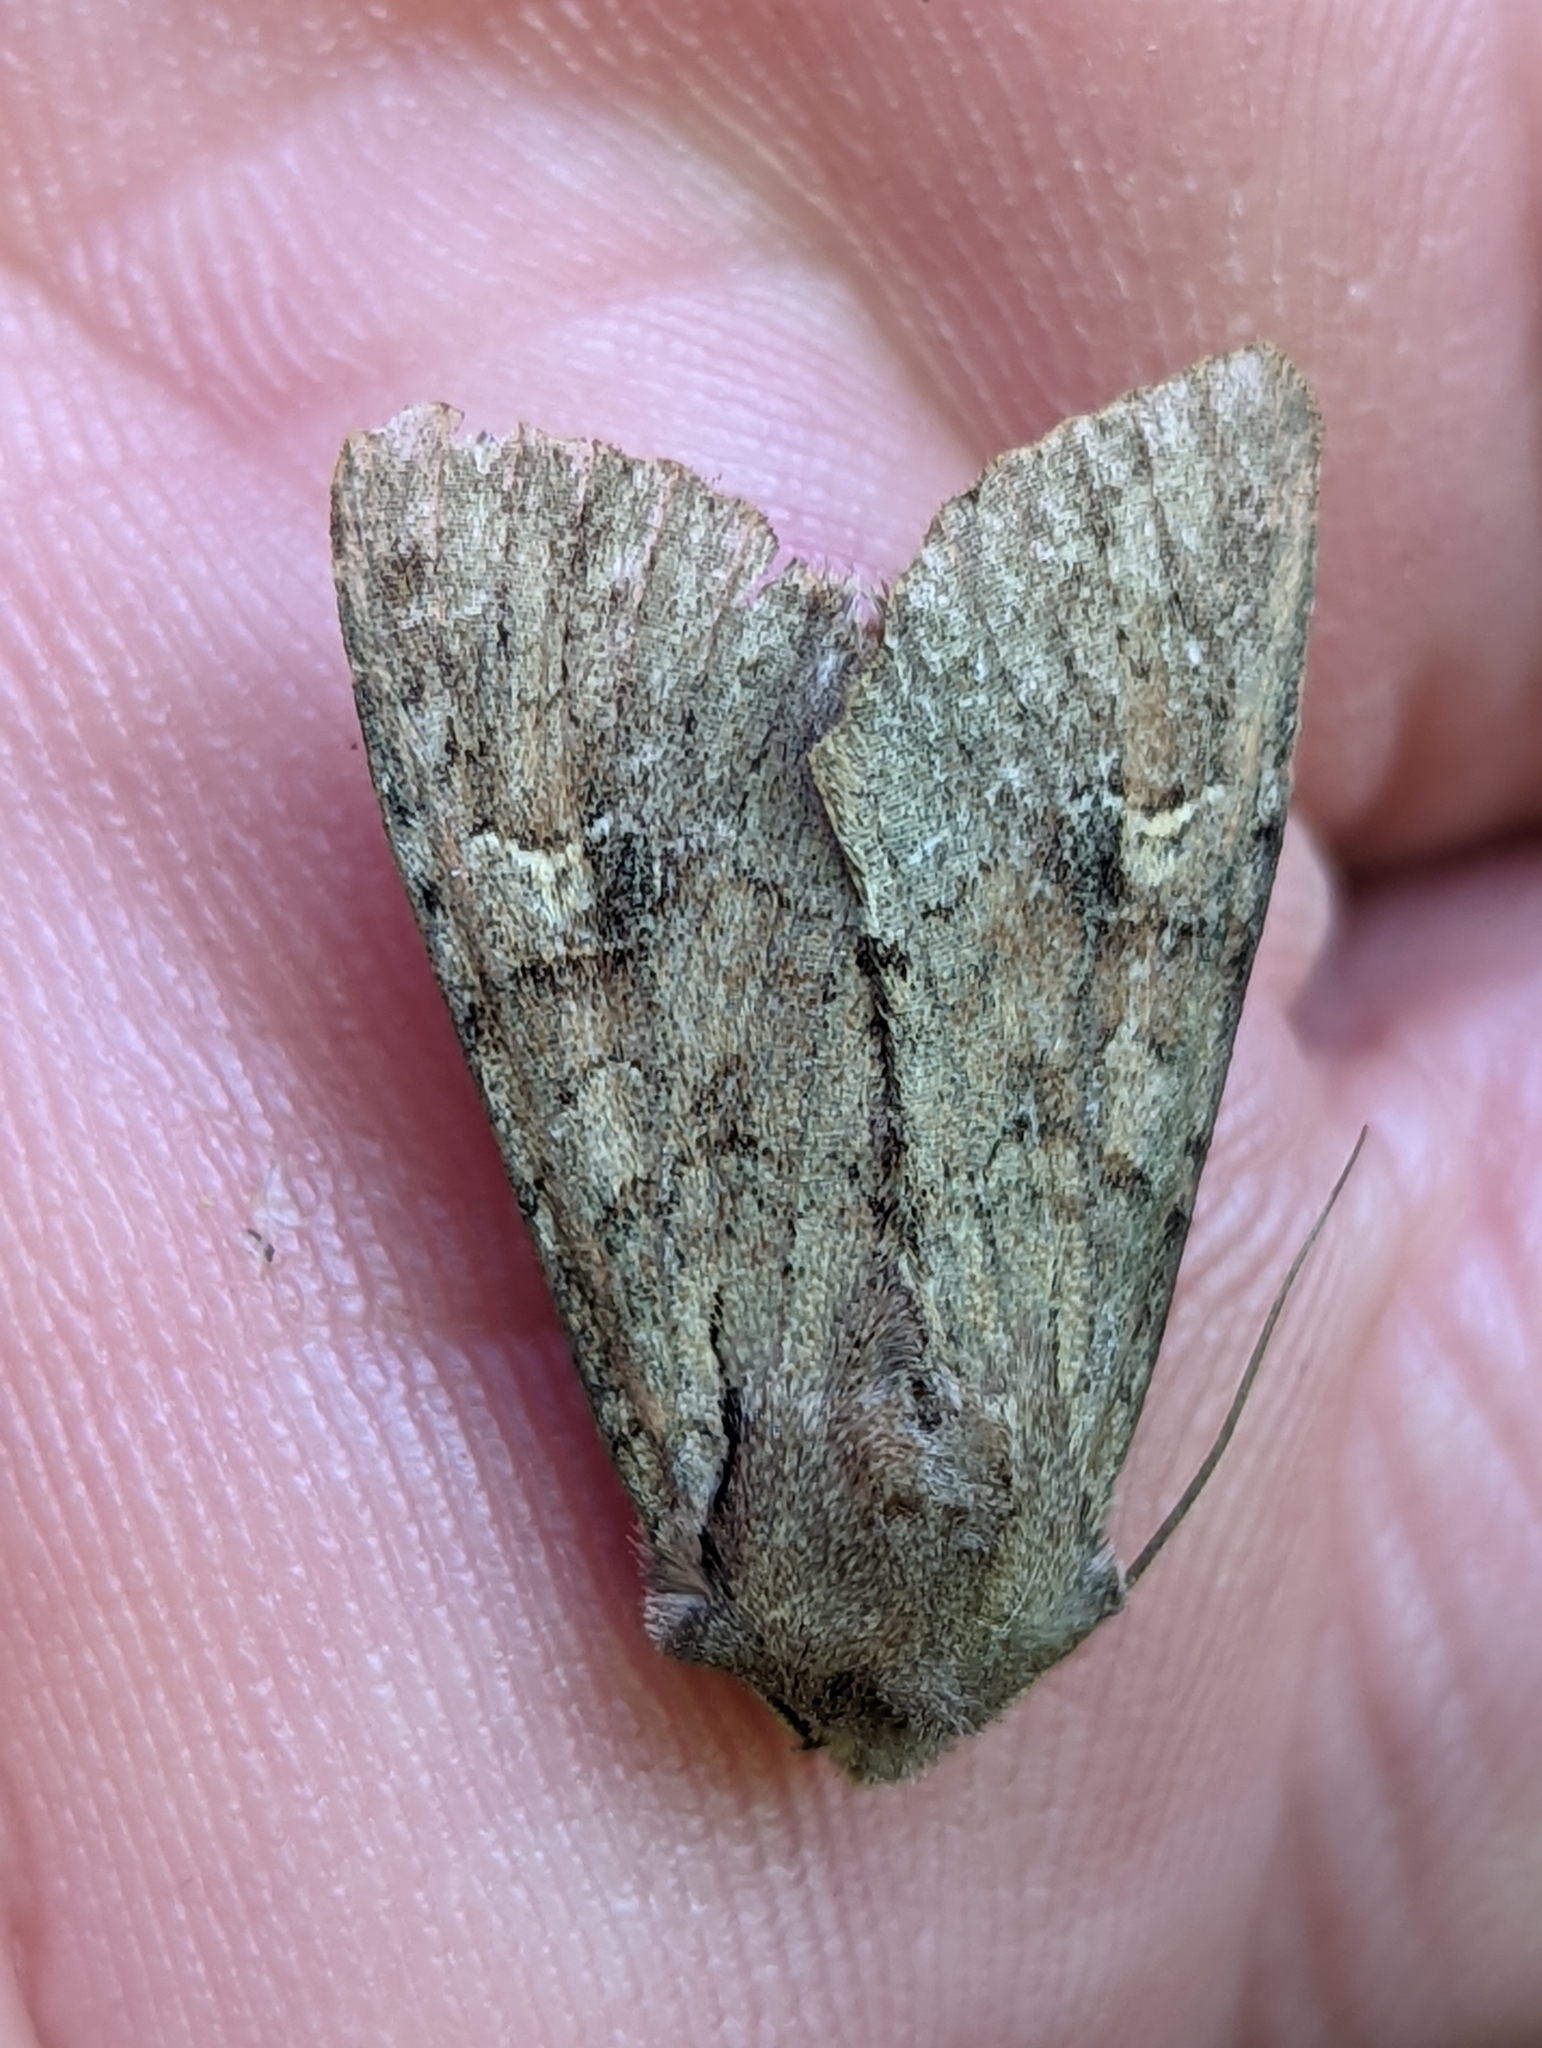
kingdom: Animalia
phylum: Arthropoda
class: Insecta
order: Lepidoptera
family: Noctuidae
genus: Apamea
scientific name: Apamea sordens
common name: Rustic shoulder-knot
